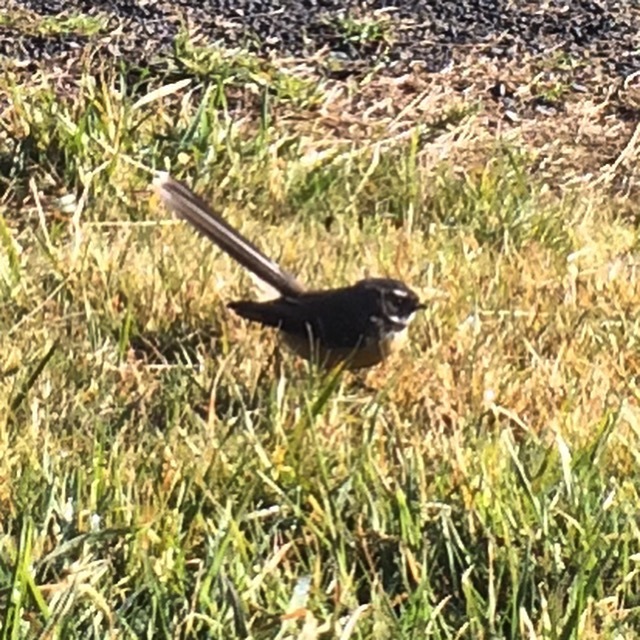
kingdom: Animalia
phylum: Chordata
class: Aves
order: Passeriformes
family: Rhipiduridae
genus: Rhipidura
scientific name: Rhipidura fuliginosa
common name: New zealand fantail
